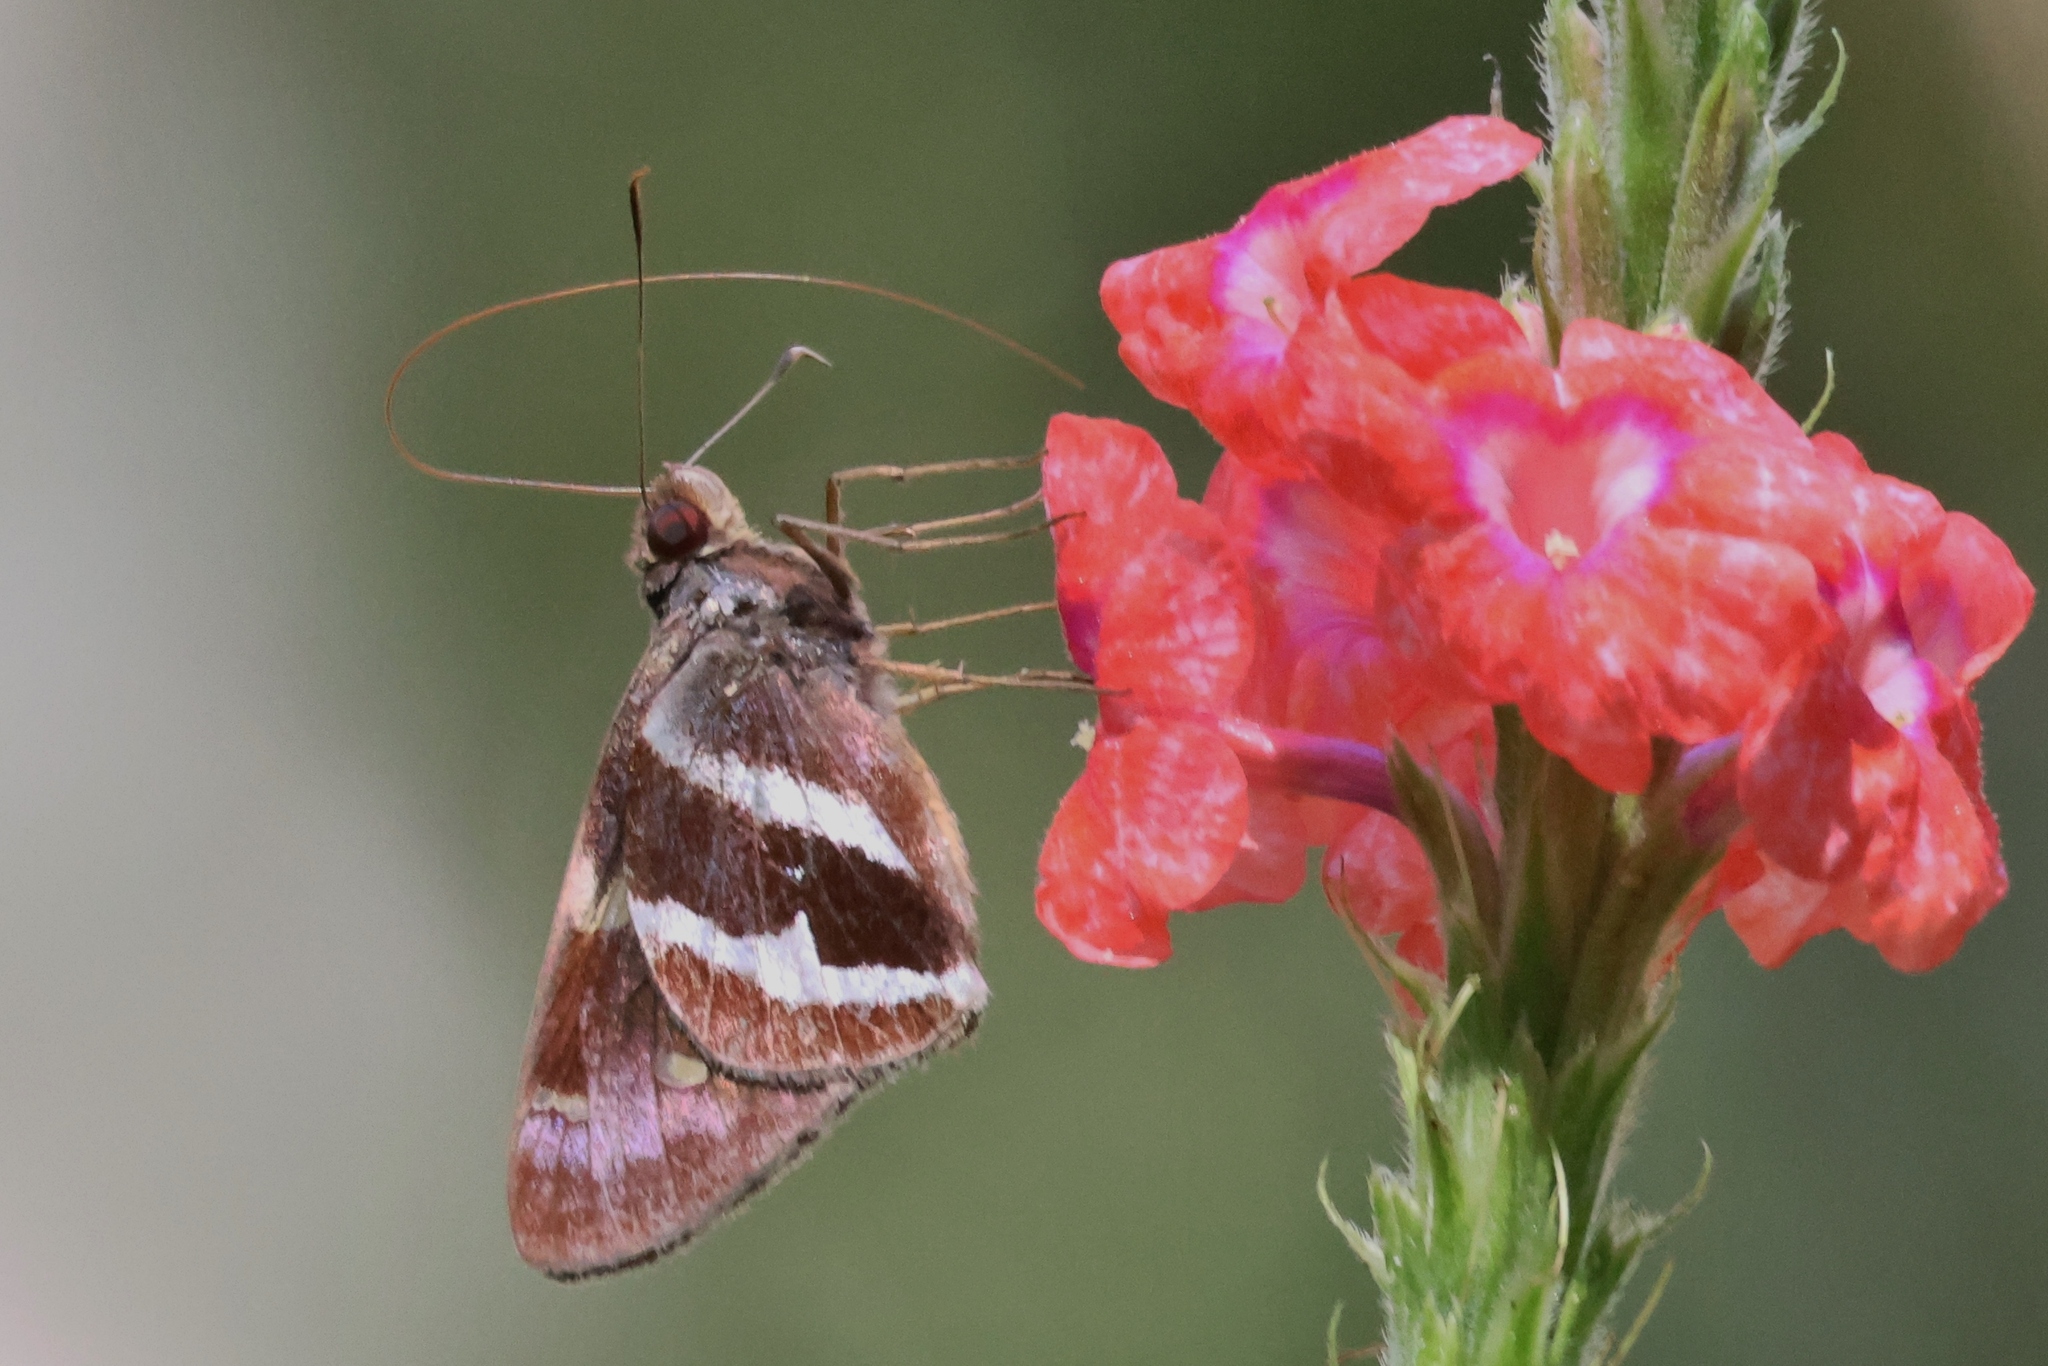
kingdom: Animalia
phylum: Arthropoda
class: Insecta
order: Lepidoptera
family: Hesperiidae
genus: Lycas
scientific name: Lycas argentea
